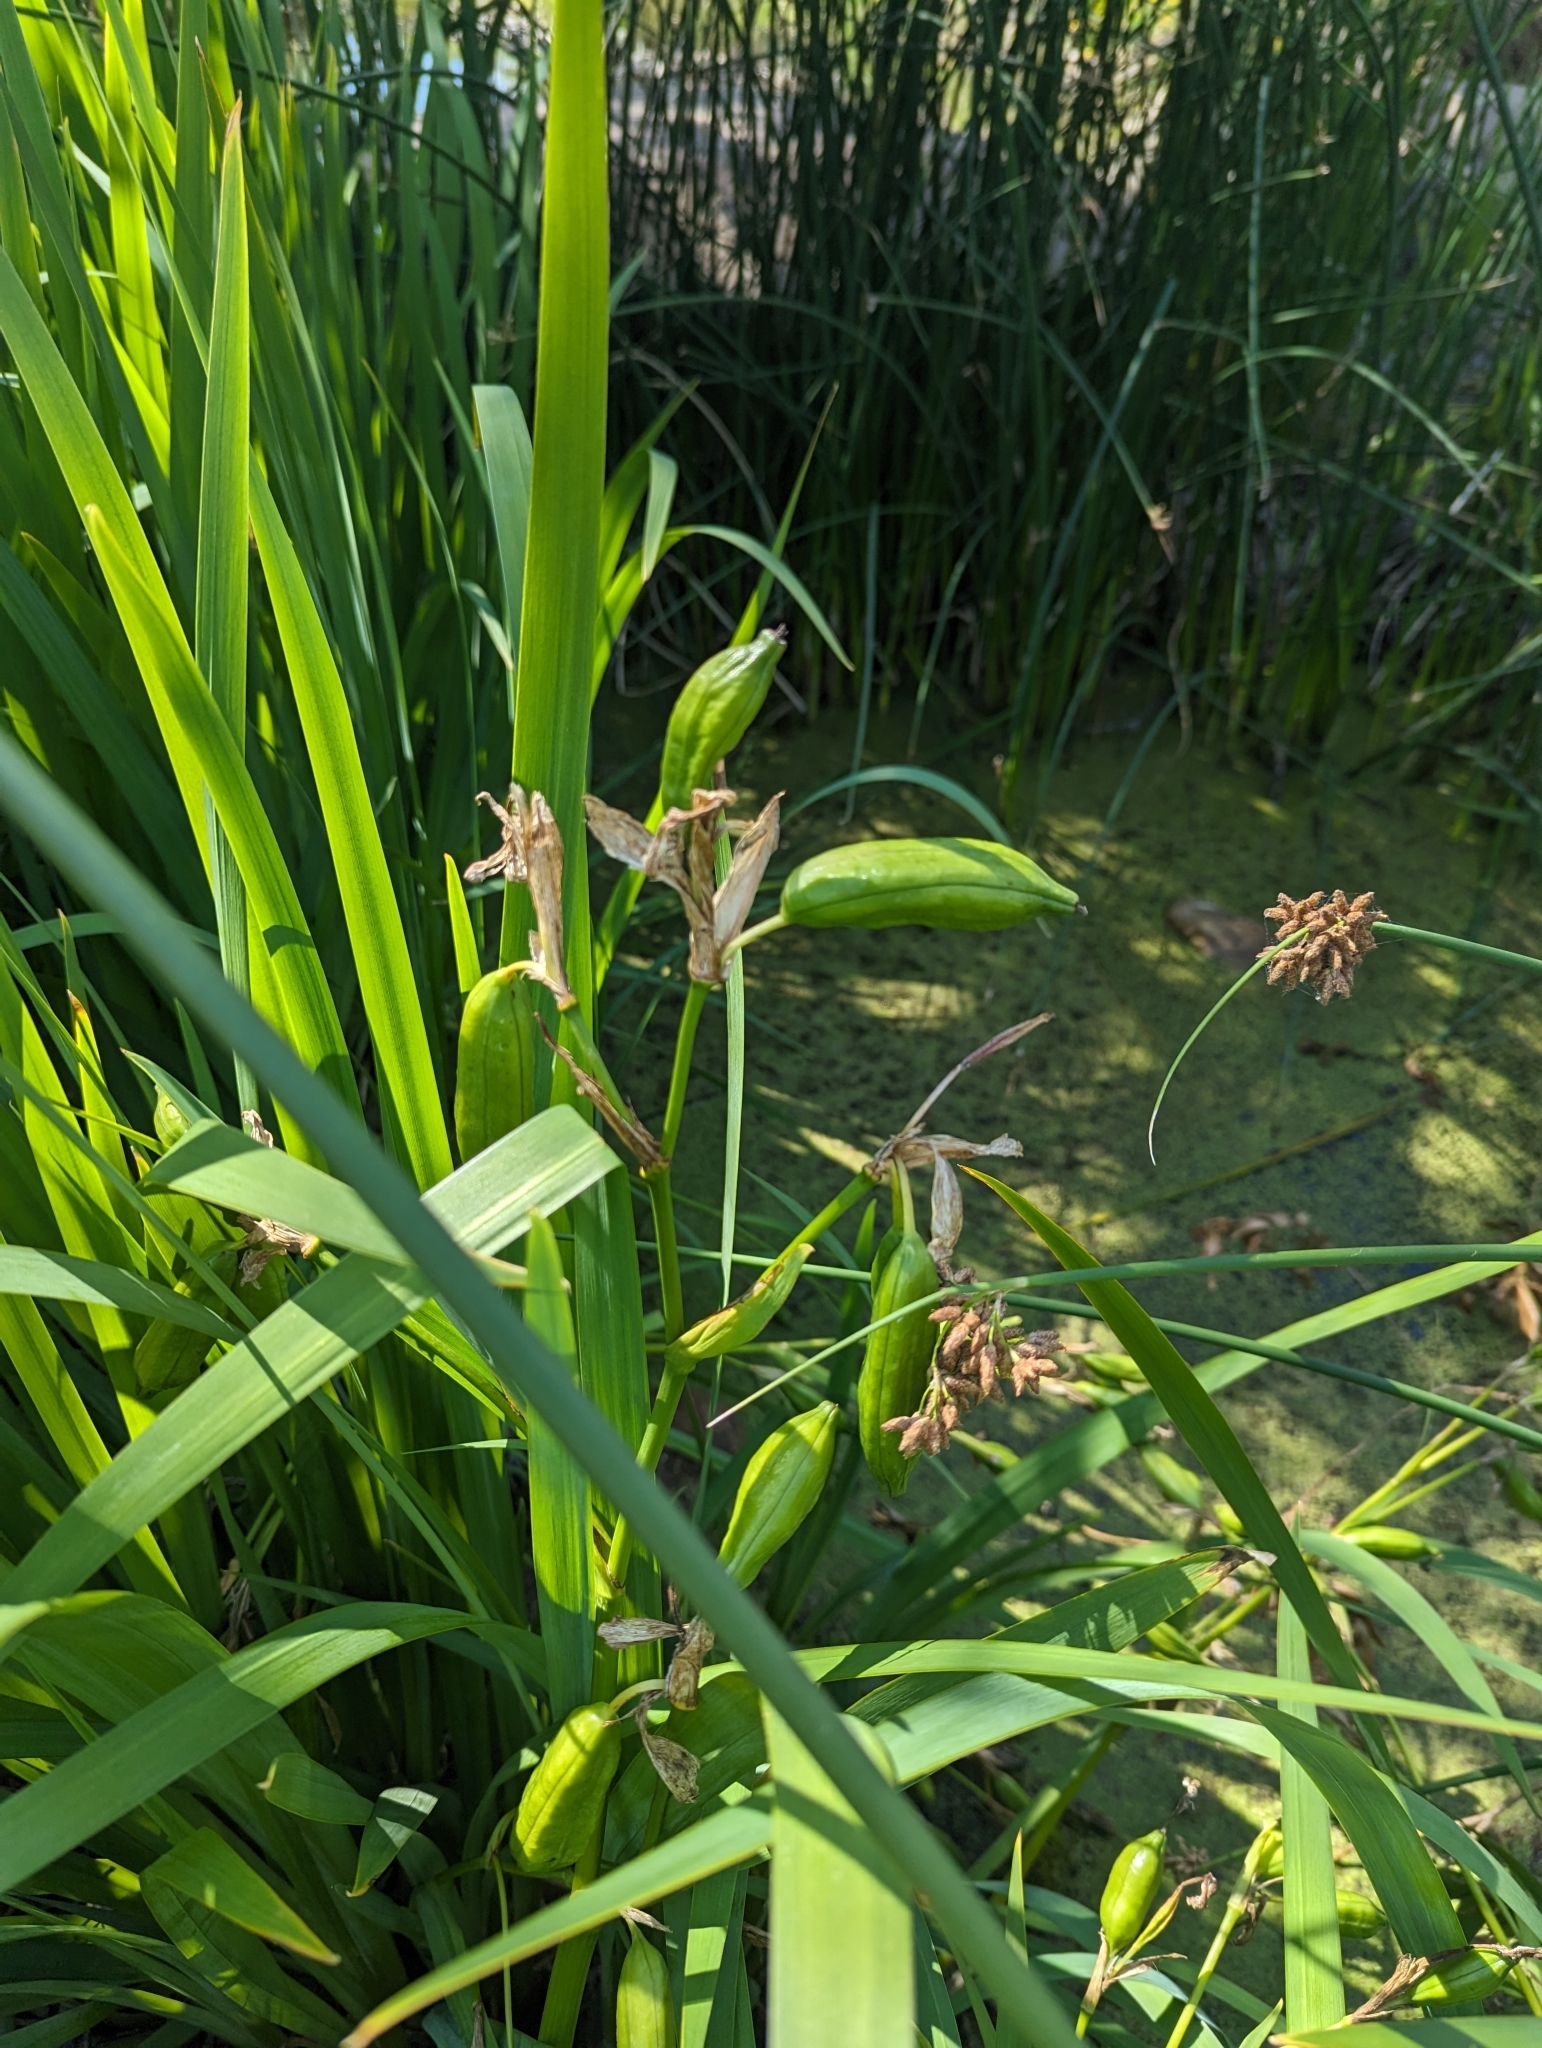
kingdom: Plantae
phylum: Tracheophyta
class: Liliopsida
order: Asparagales
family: Iridaceae
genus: Iris
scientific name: Iris pseudacorus
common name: Yellow flag
